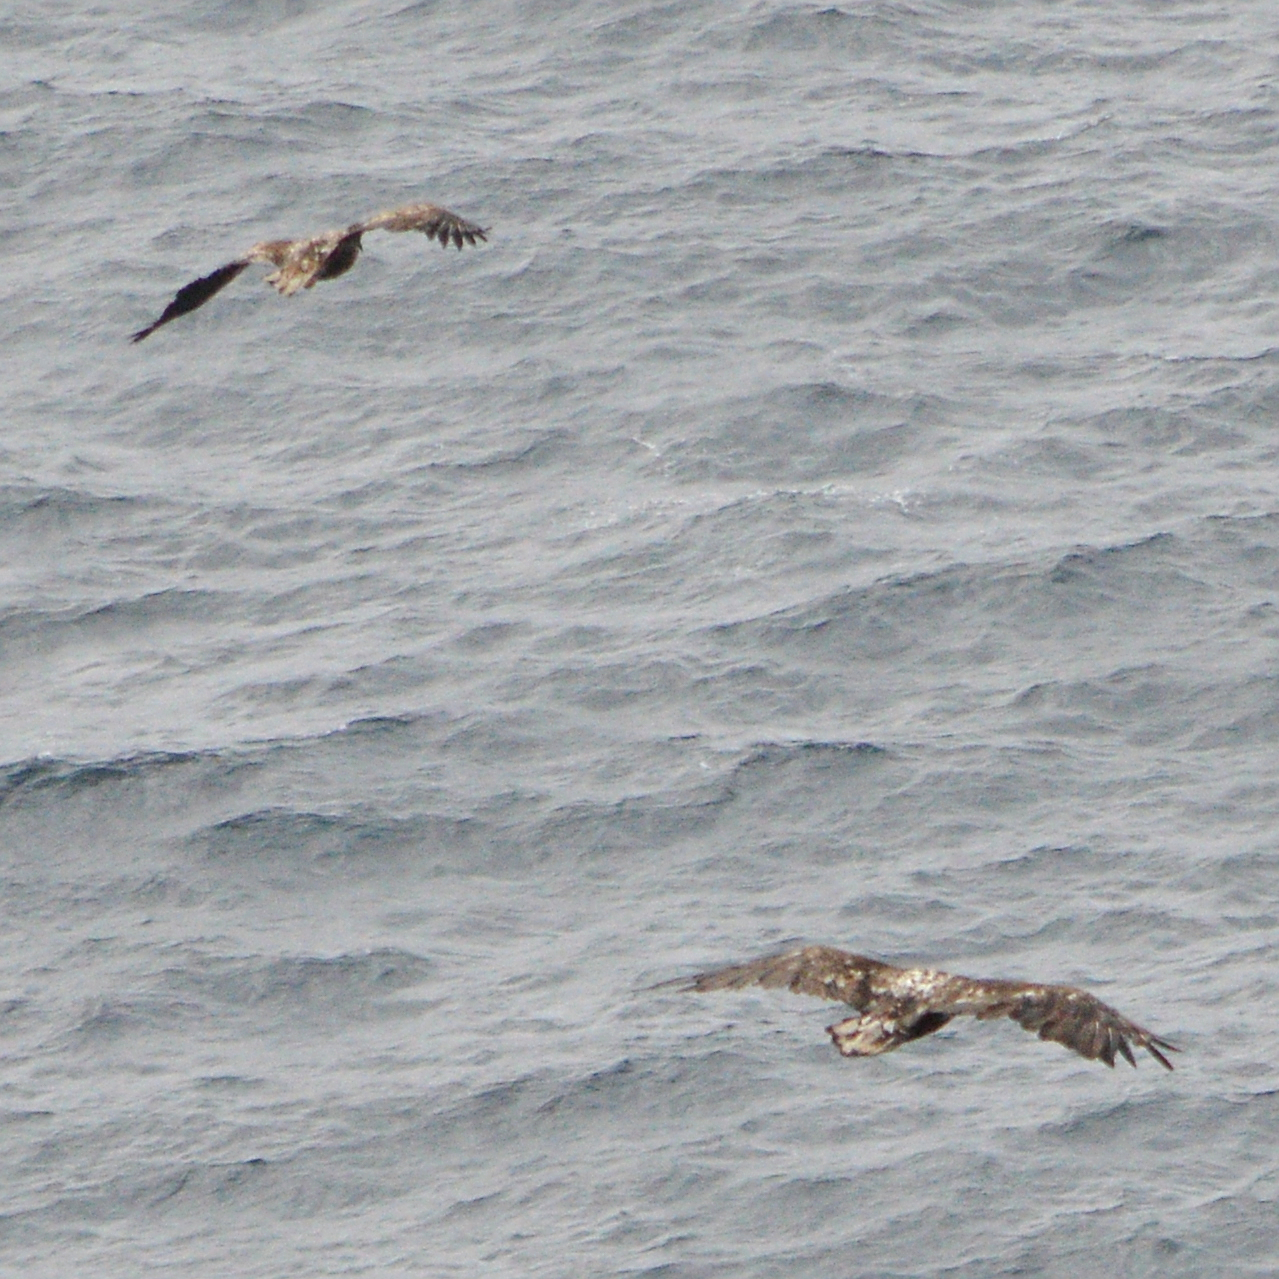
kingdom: Animalia
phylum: Chordata
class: Aves
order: Accipitriformes
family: Accipitridae
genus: Haliaeetus
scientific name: Haliaeetus albicilla
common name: White-tailed eagle
